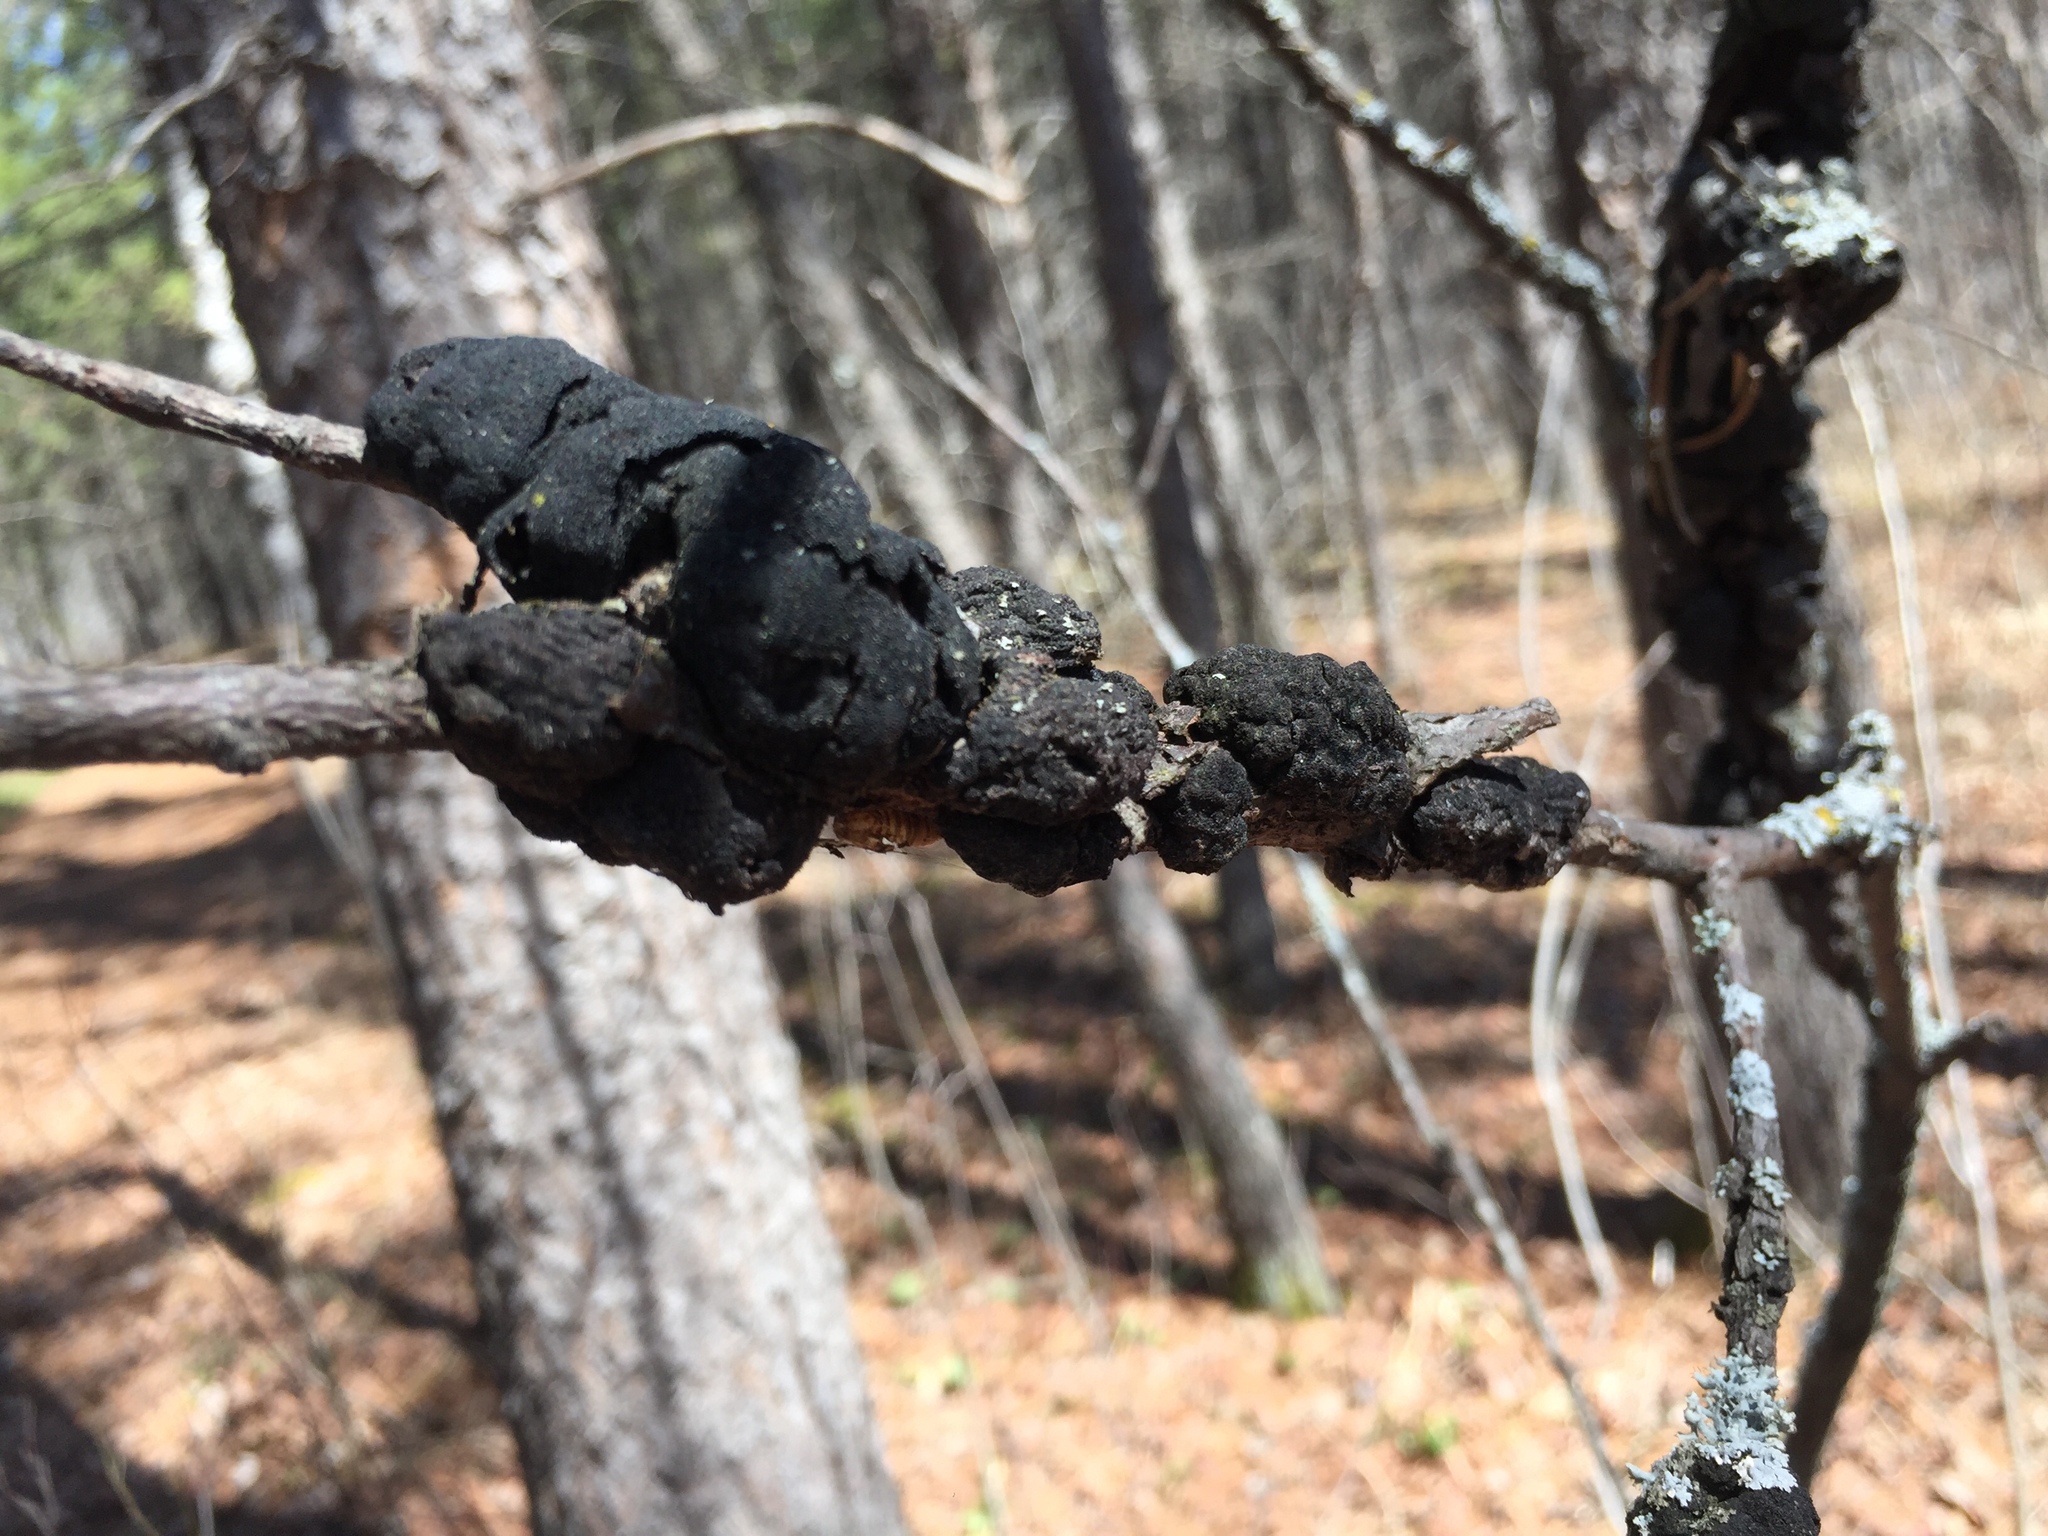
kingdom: Fungi
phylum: Ascomycota
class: Dothideomycetes
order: Venturiales
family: Venturiaceae
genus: Apiosporina
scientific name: Apiosporina morbosa
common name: Black knot
